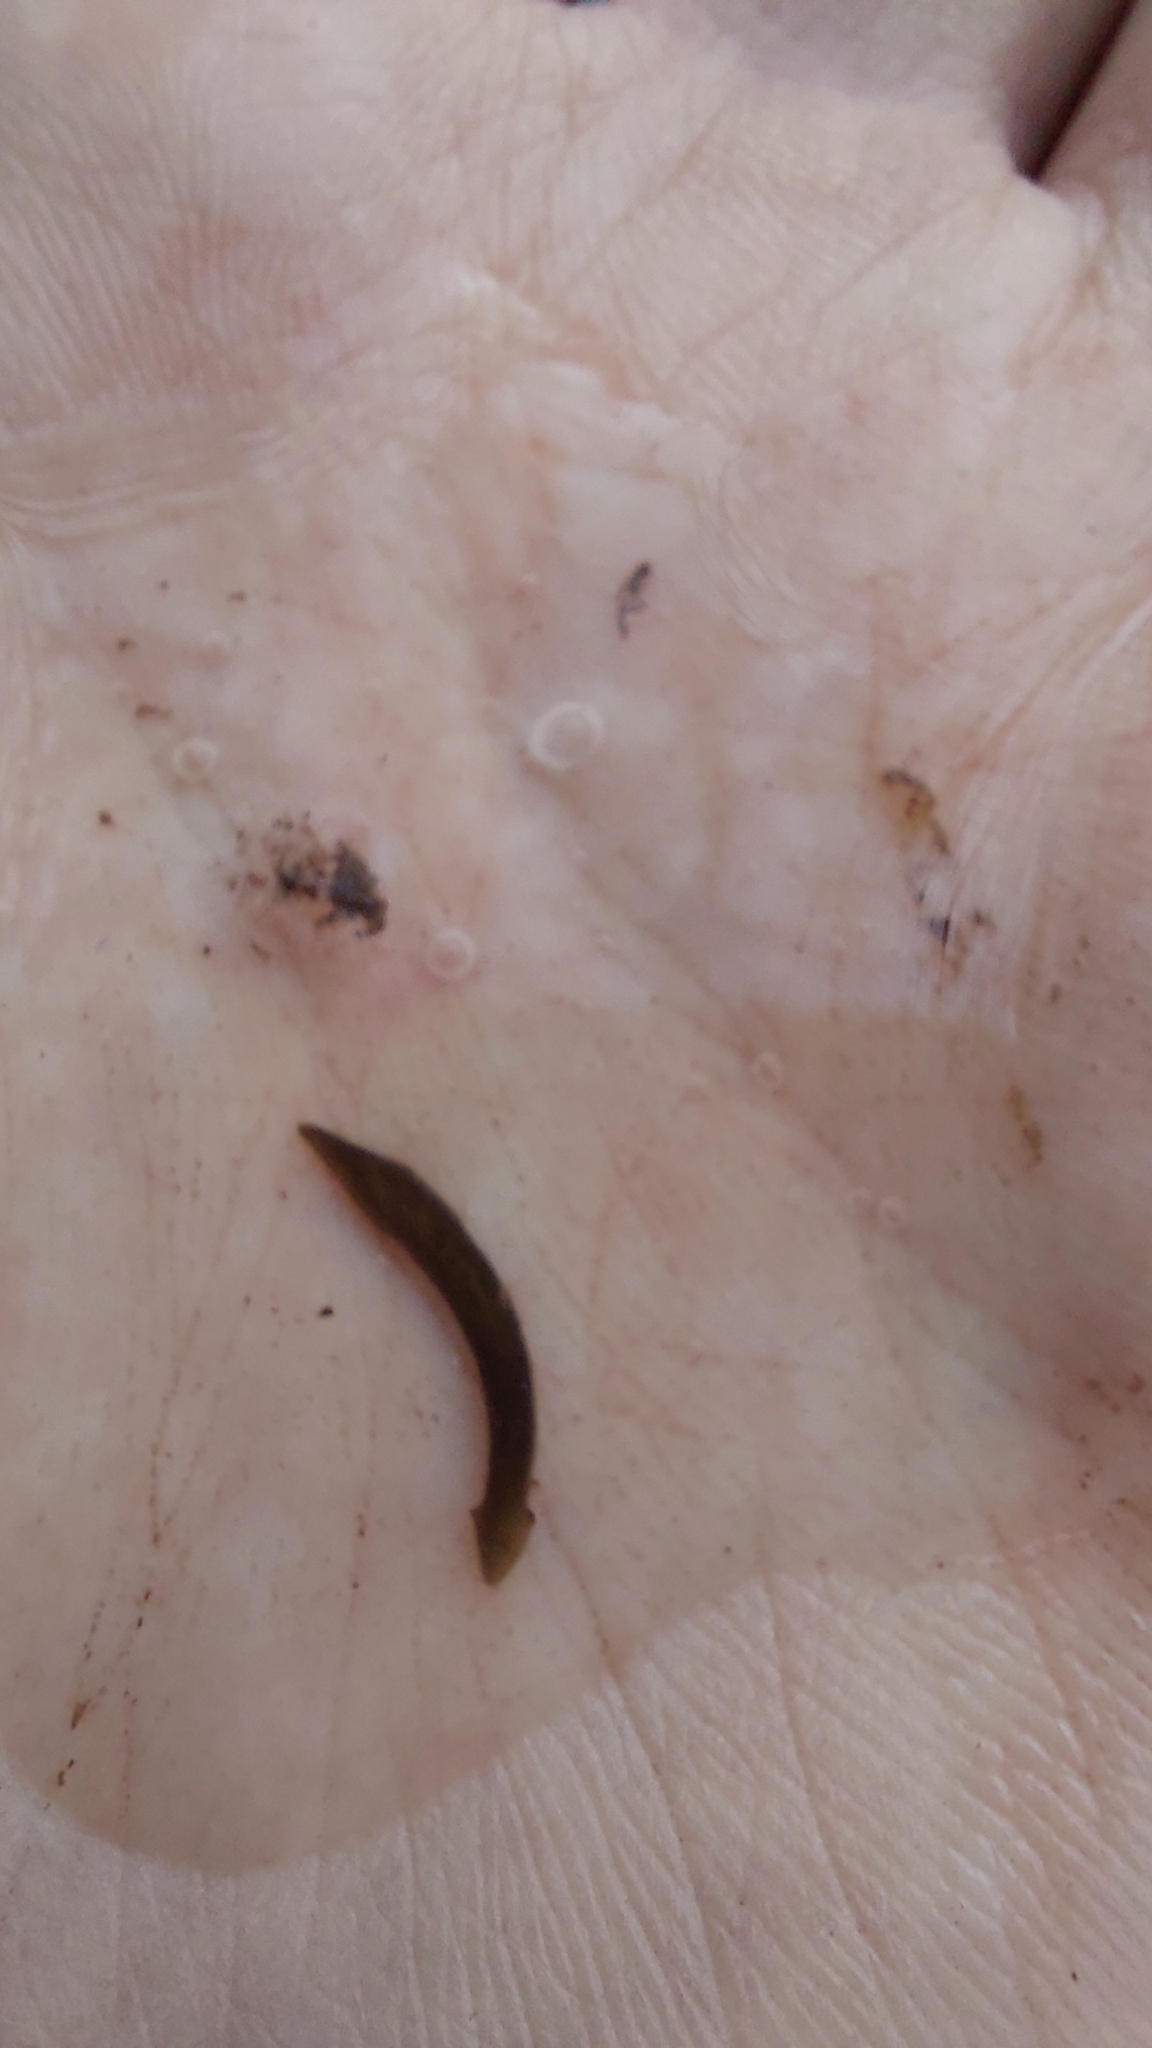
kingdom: Animalia
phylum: Platyhelminthes
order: Tricladida
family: Dugesiidae
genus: Dugesia
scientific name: Dugesia gonocephala
